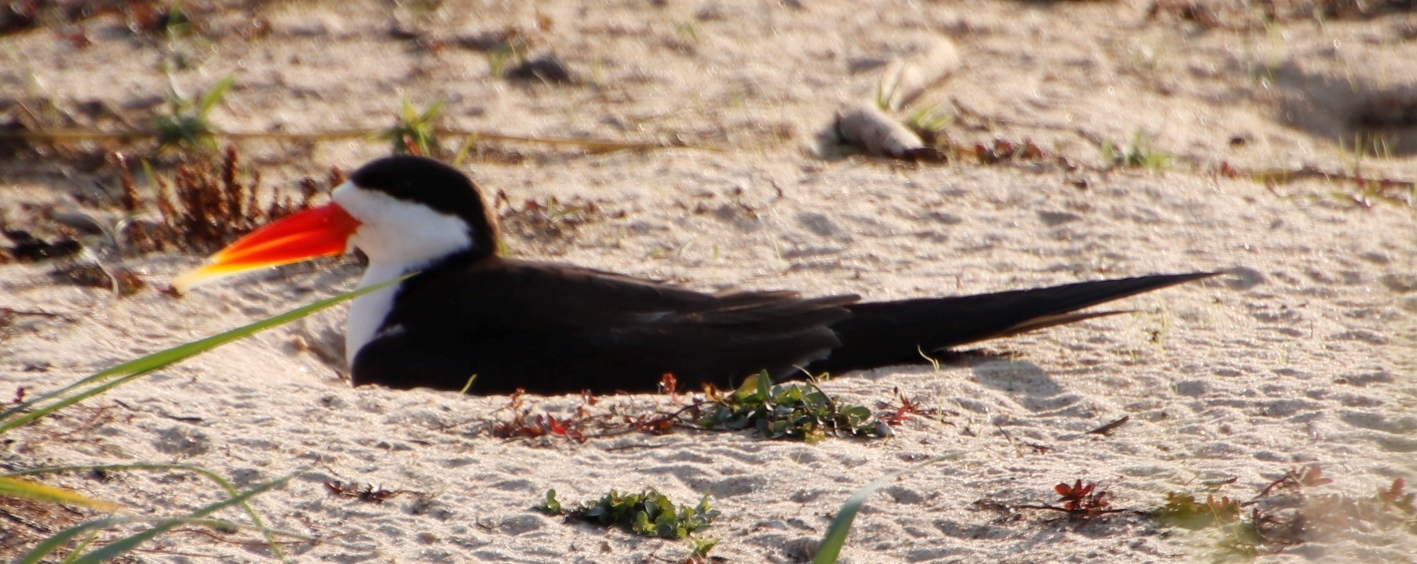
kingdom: Animalia
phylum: Chordata
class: Aves
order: Charadriiformes
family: Laridae
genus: Rynchops
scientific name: Rynchops flavirostris
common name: African skimmer
